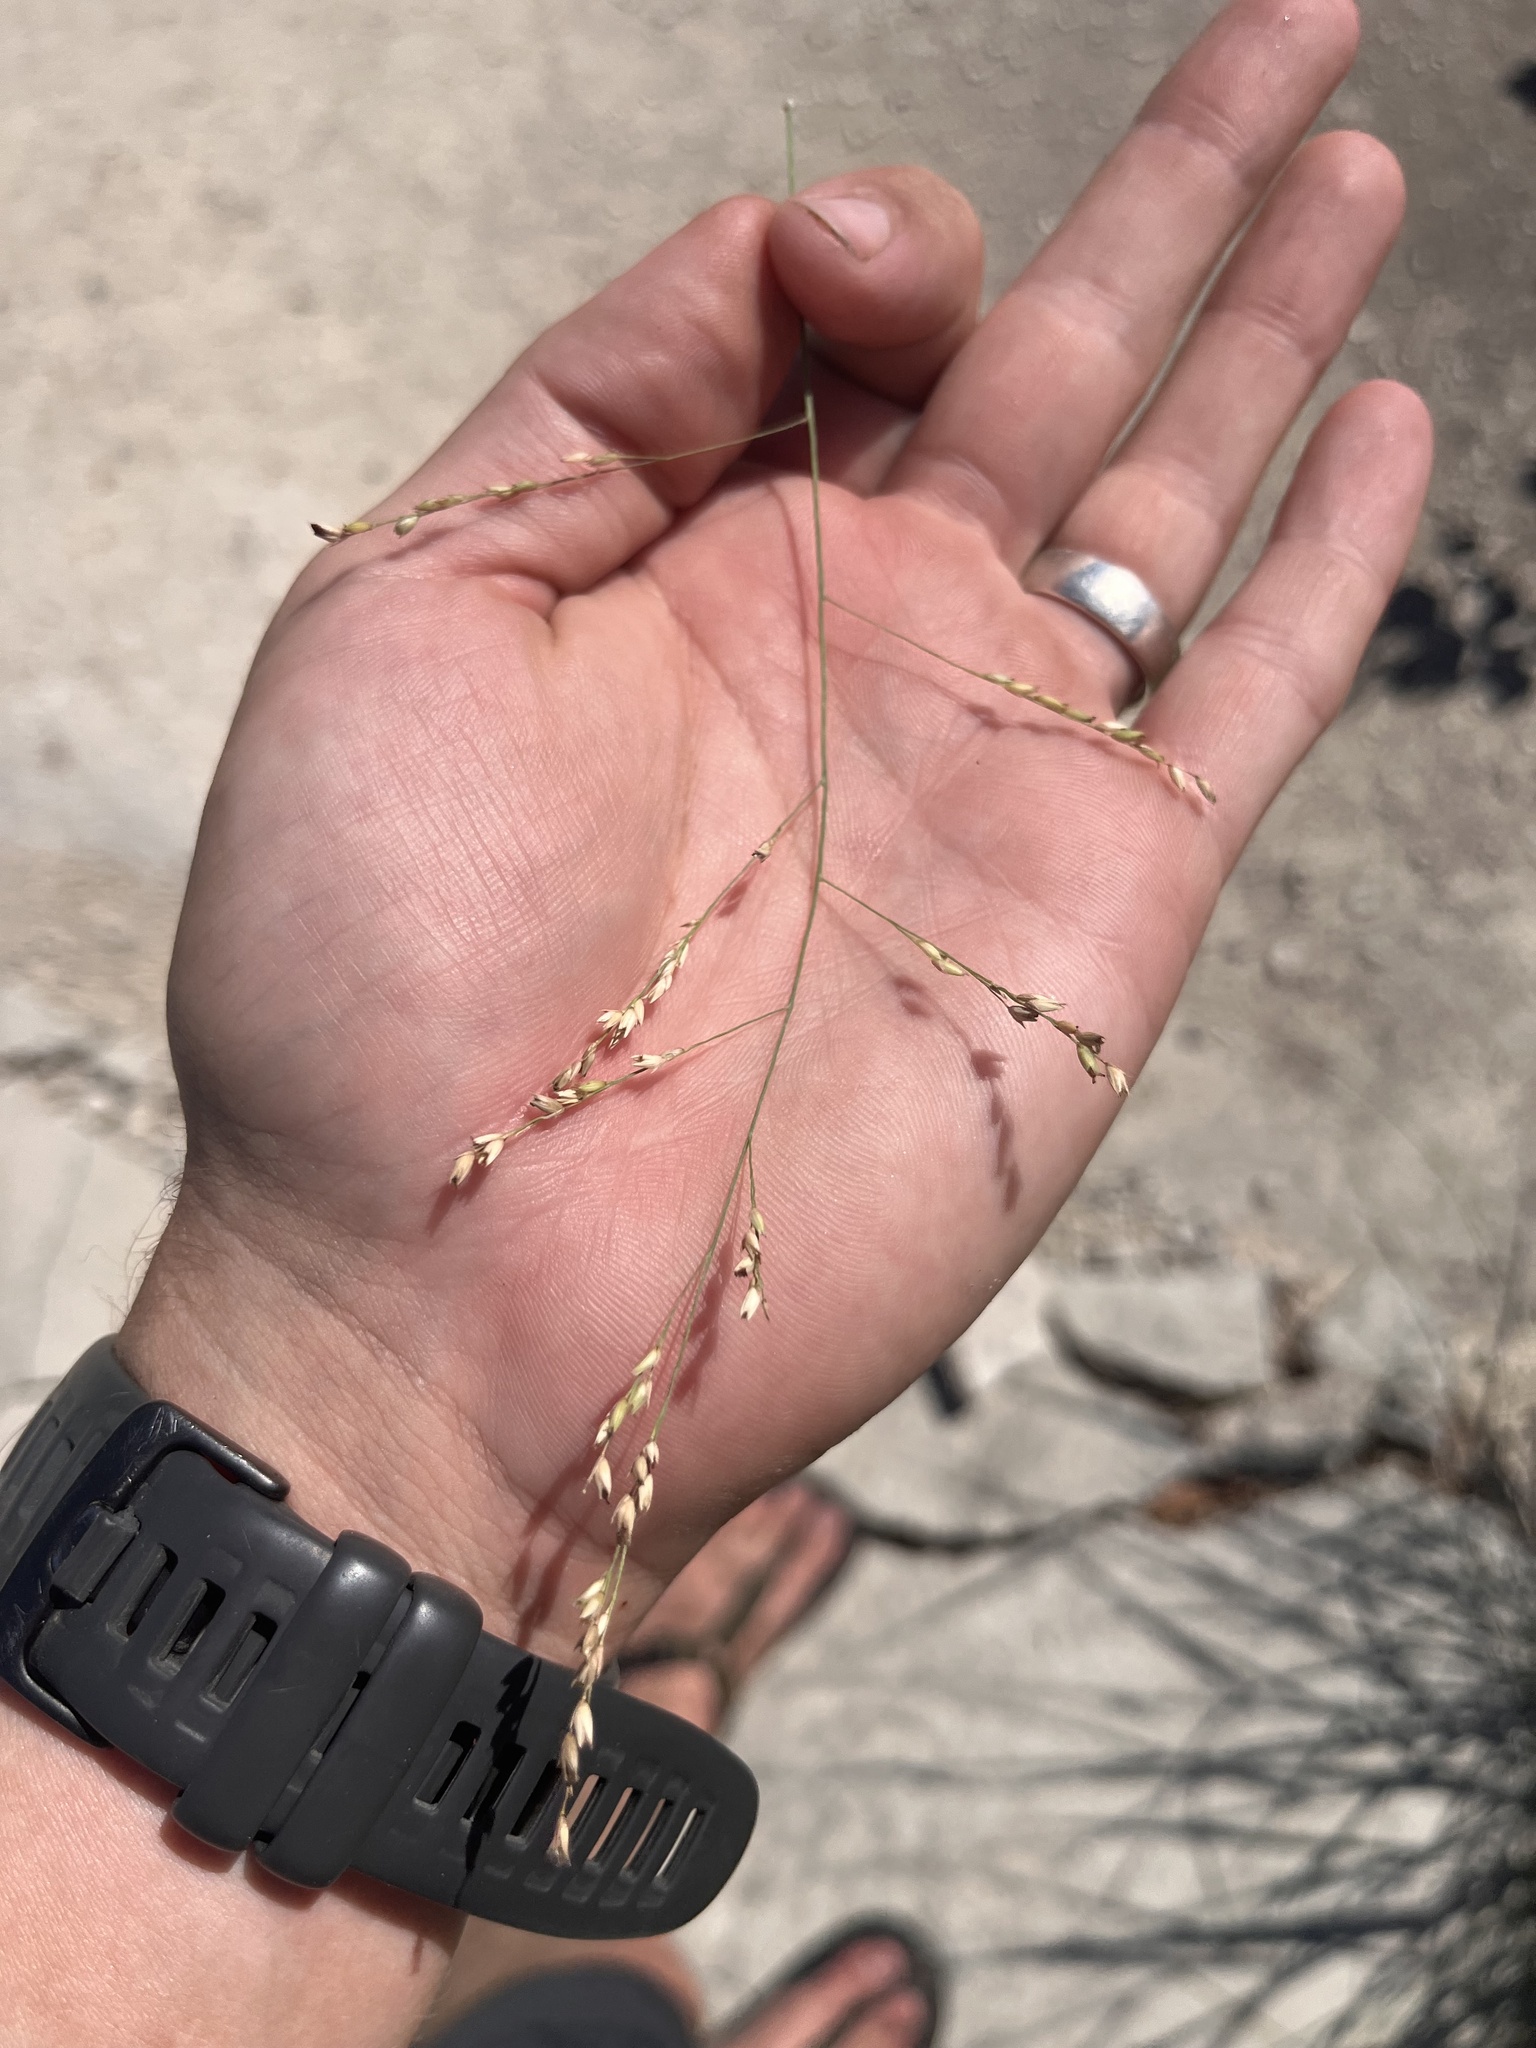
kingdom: Plantae
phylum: Tracheophyta
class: Liliopsida
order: Poales
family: Poaceae
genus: Panicum
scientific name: Panicum virgatum
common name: Switchgrass
